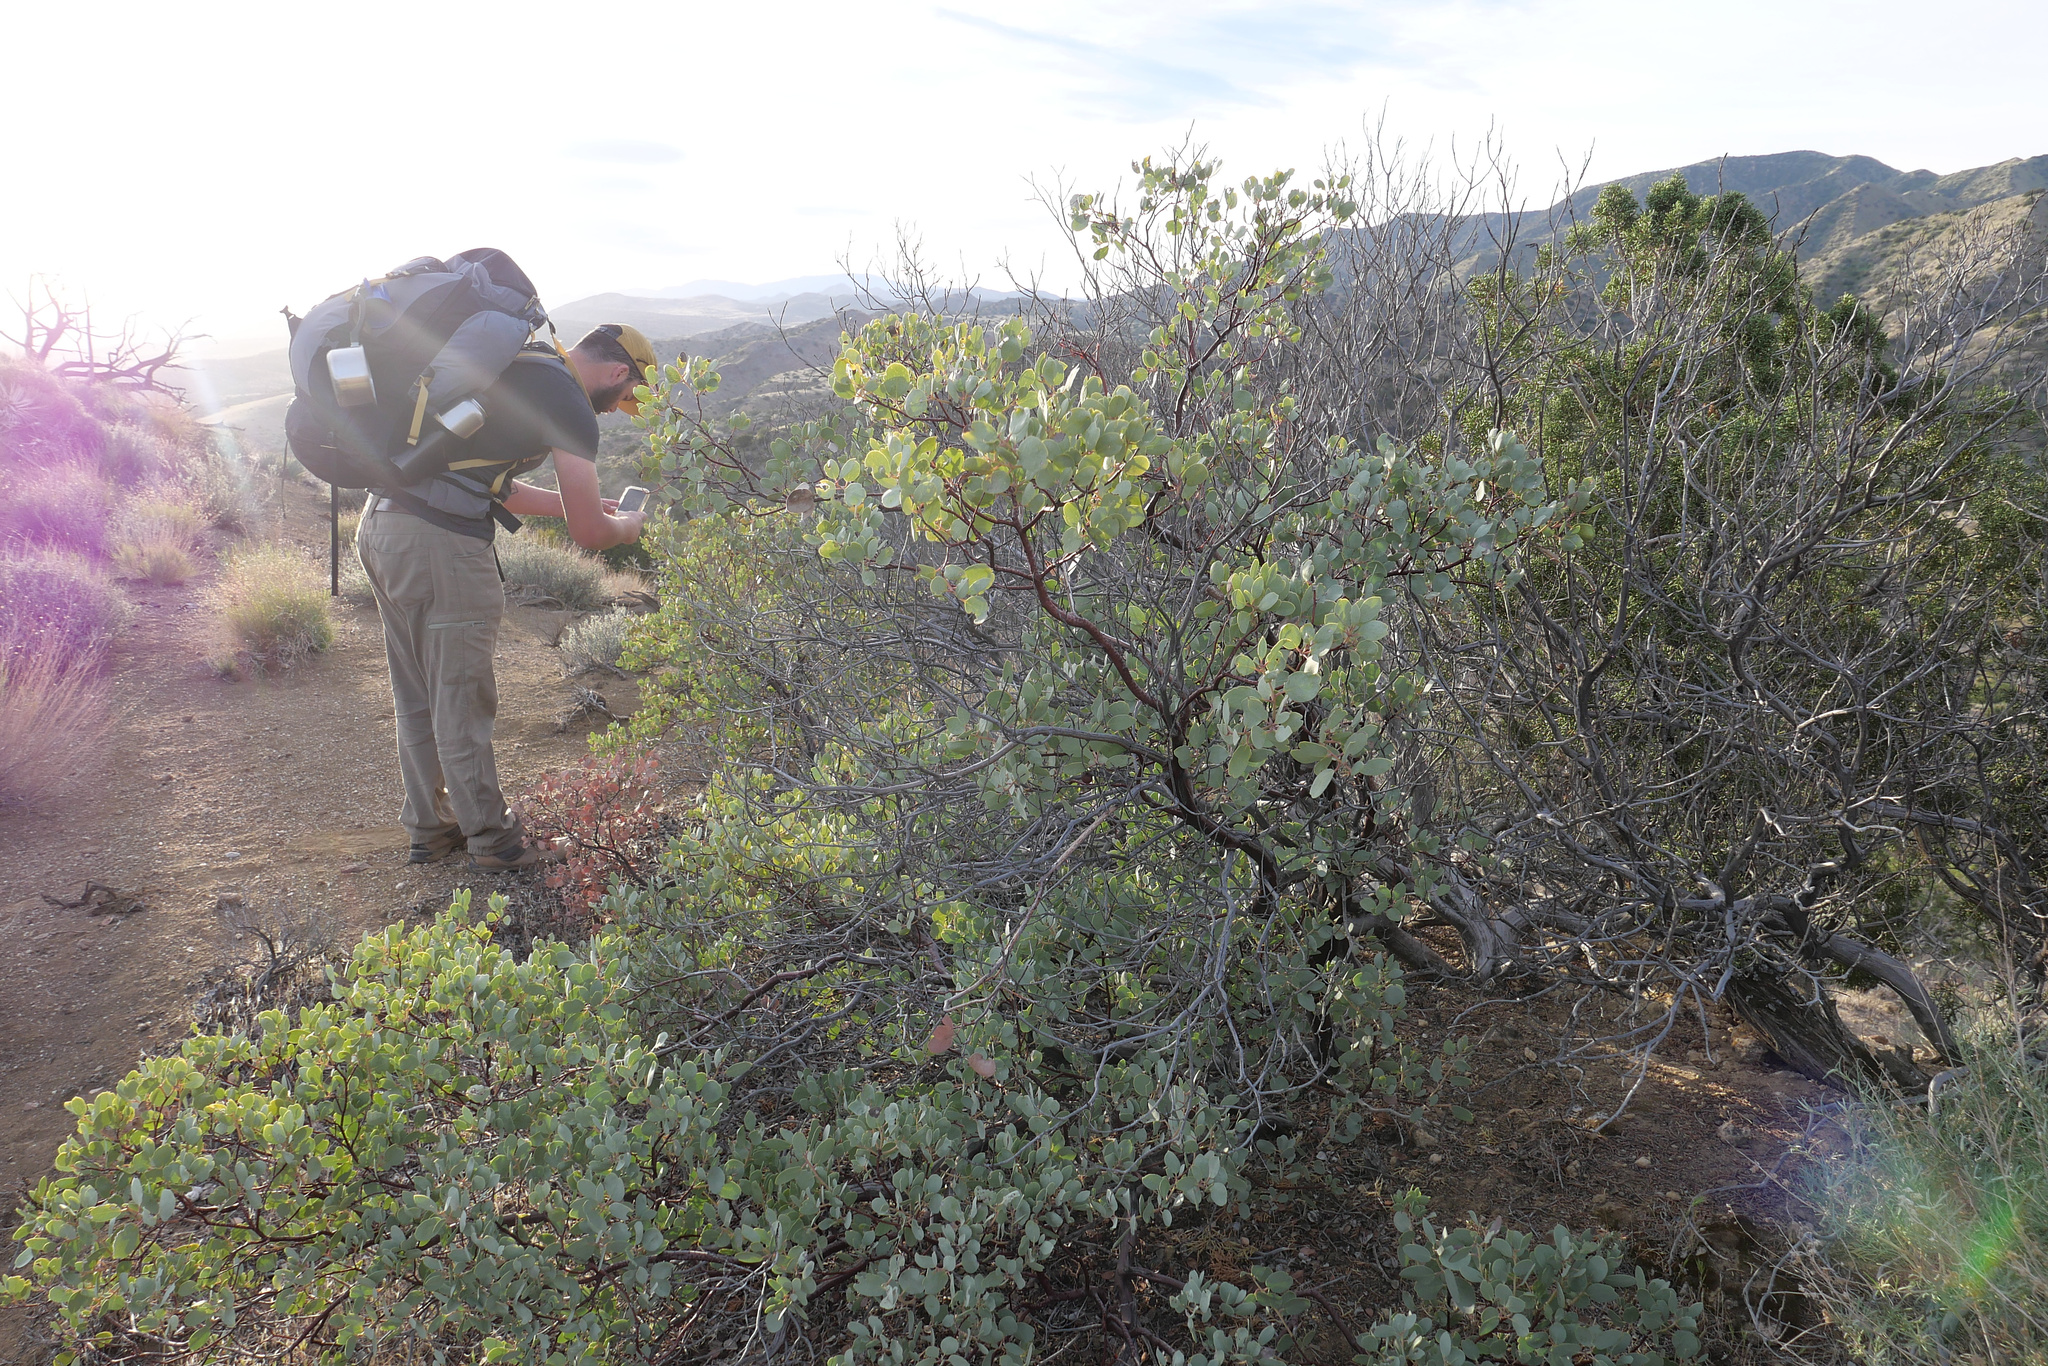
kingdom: Plantae
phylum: Tracheophyta
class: Magnoliopsida
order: Ericales
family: Ericaceae
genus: Arctostaphylos
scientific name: Arctostaphylos glauca
